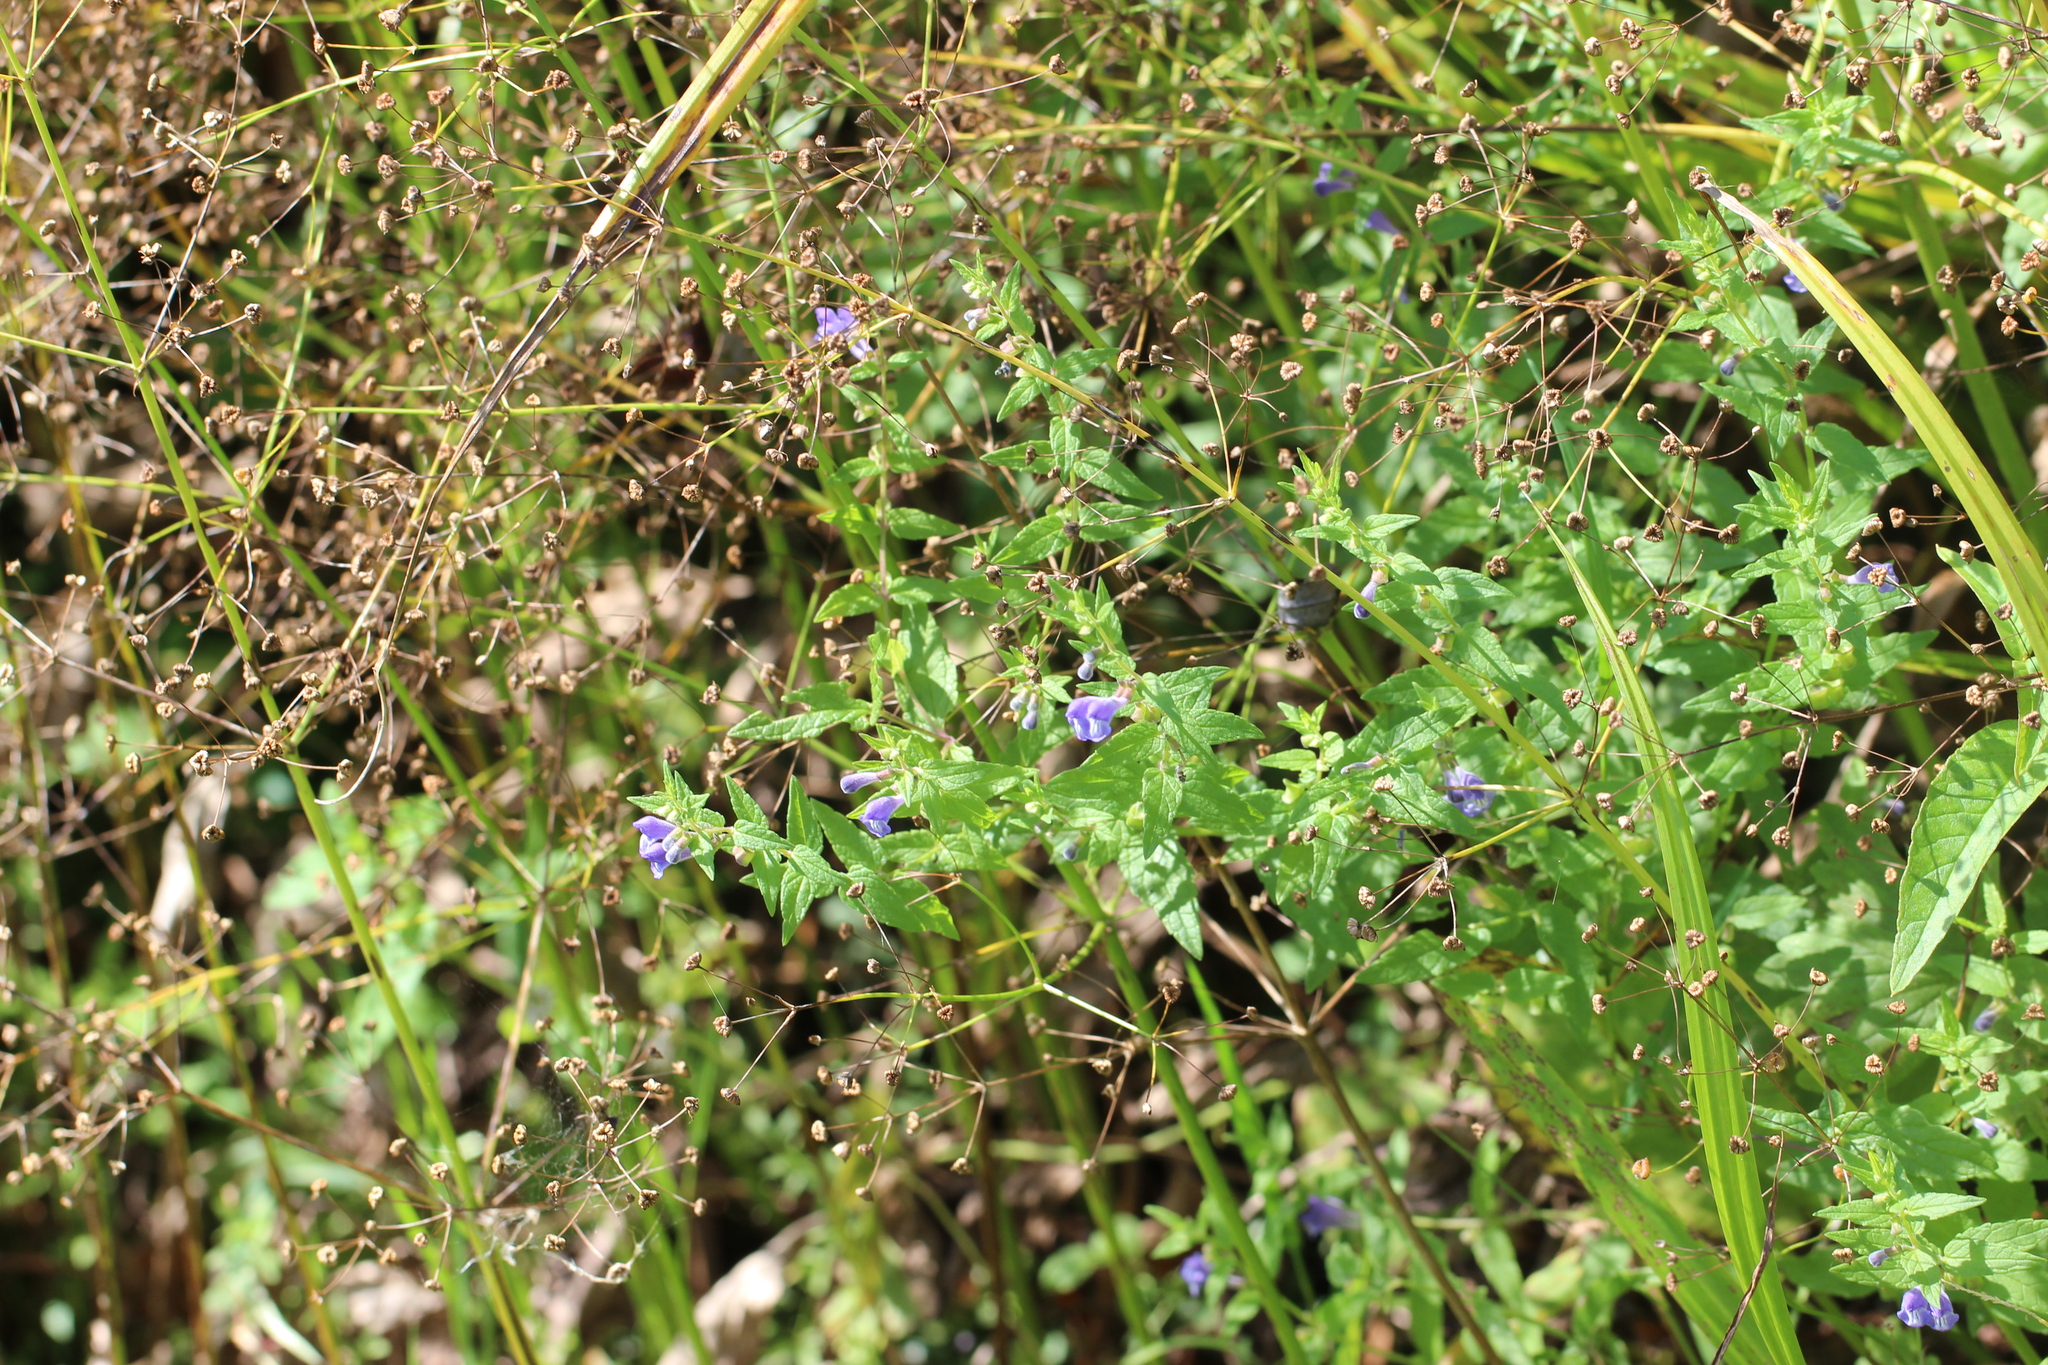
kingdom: Plantae
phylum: Tracheophyta
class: Magnoliopsida
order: Lamiales
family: Lamiaceae
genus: Scutellaria
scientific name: Scutellaria galericulata
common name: Skullcap
